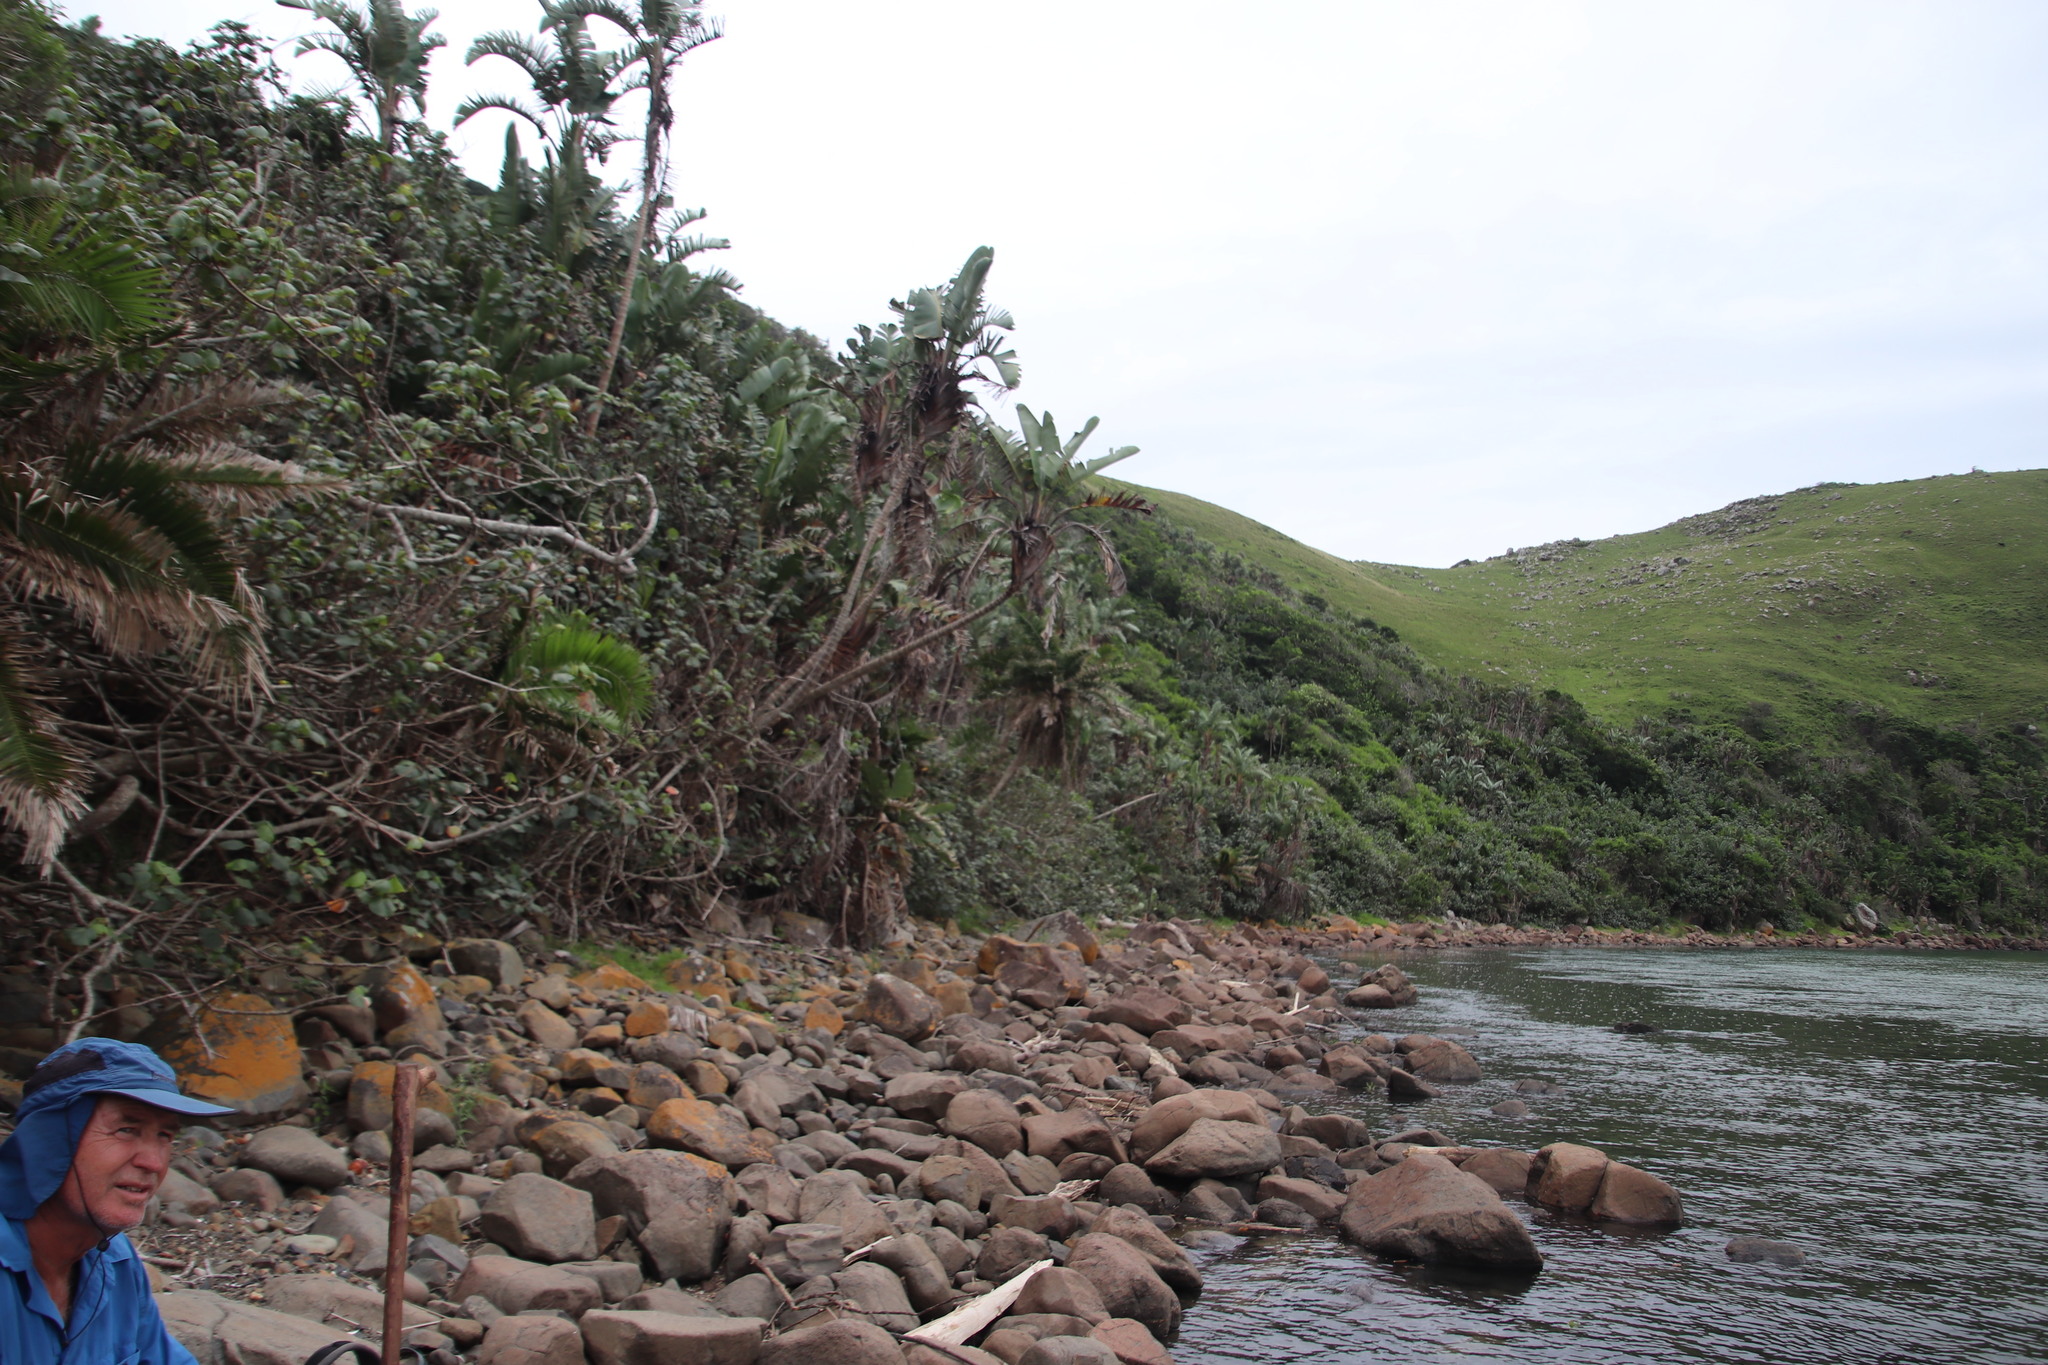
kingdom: Plantae
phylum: Tracheophyta
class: Liliopsida
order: Zingiberales
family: Strelitziaceae
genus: Strelitzia
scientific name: Strelitzia nicolai
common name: Bird-of-paradise tree
